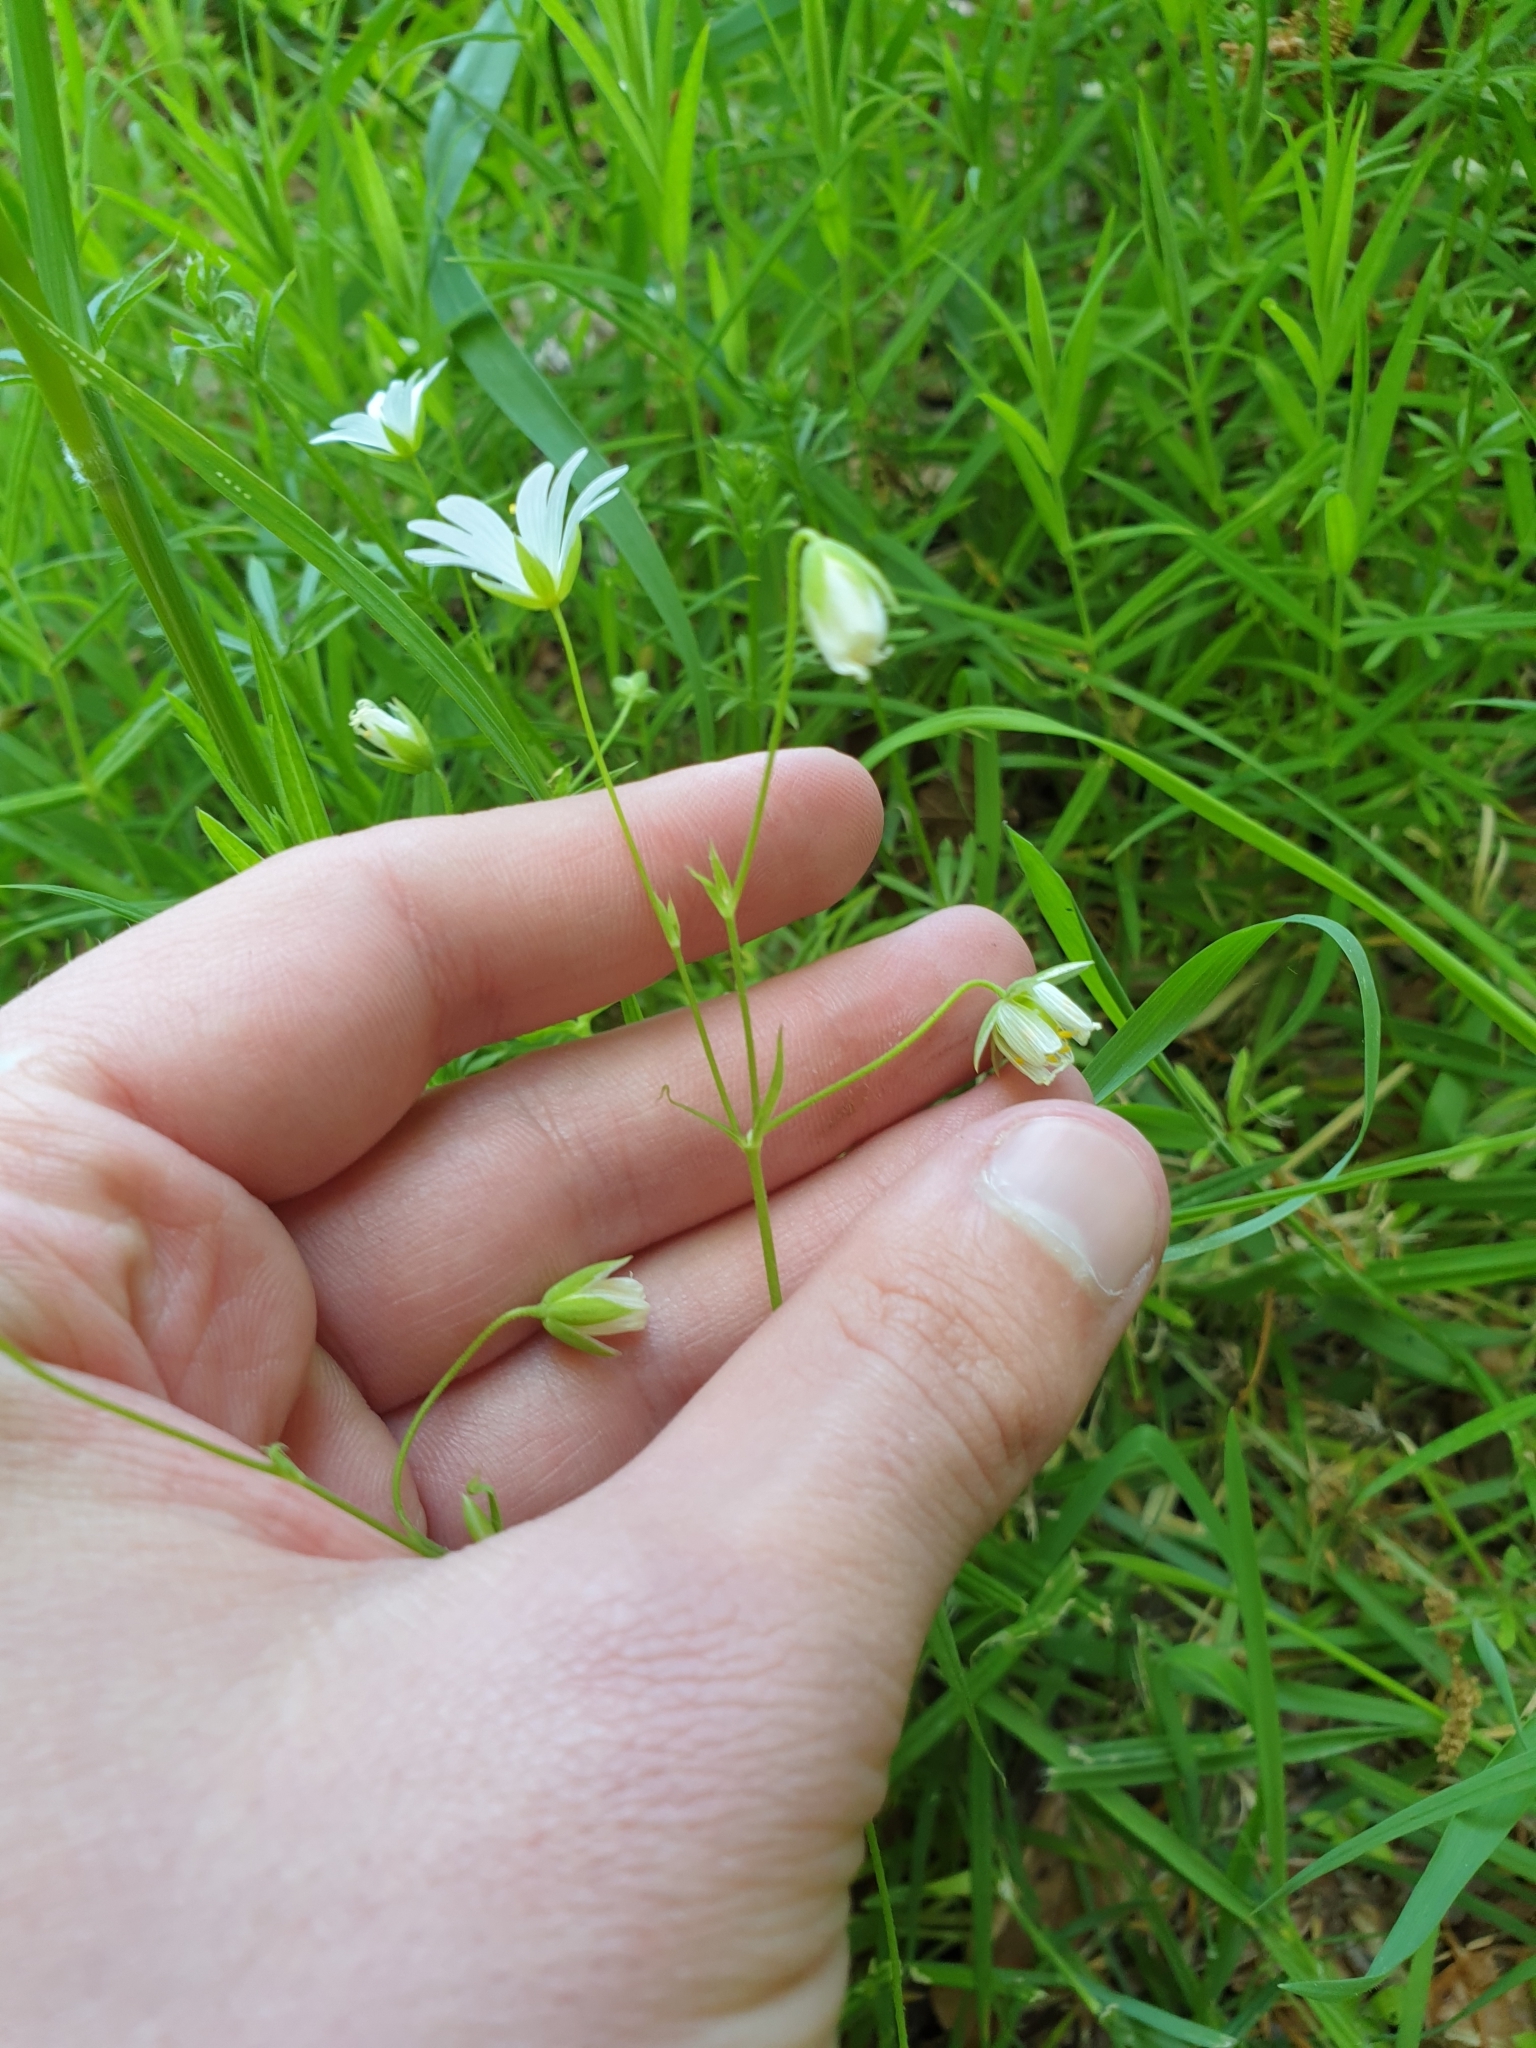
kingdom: Plantae
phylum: Tracheophyta
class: Magnoliopsida
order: Caryophyllales
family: Caryophyllaceae
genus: Rabelera
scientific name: Rabelera holostea
